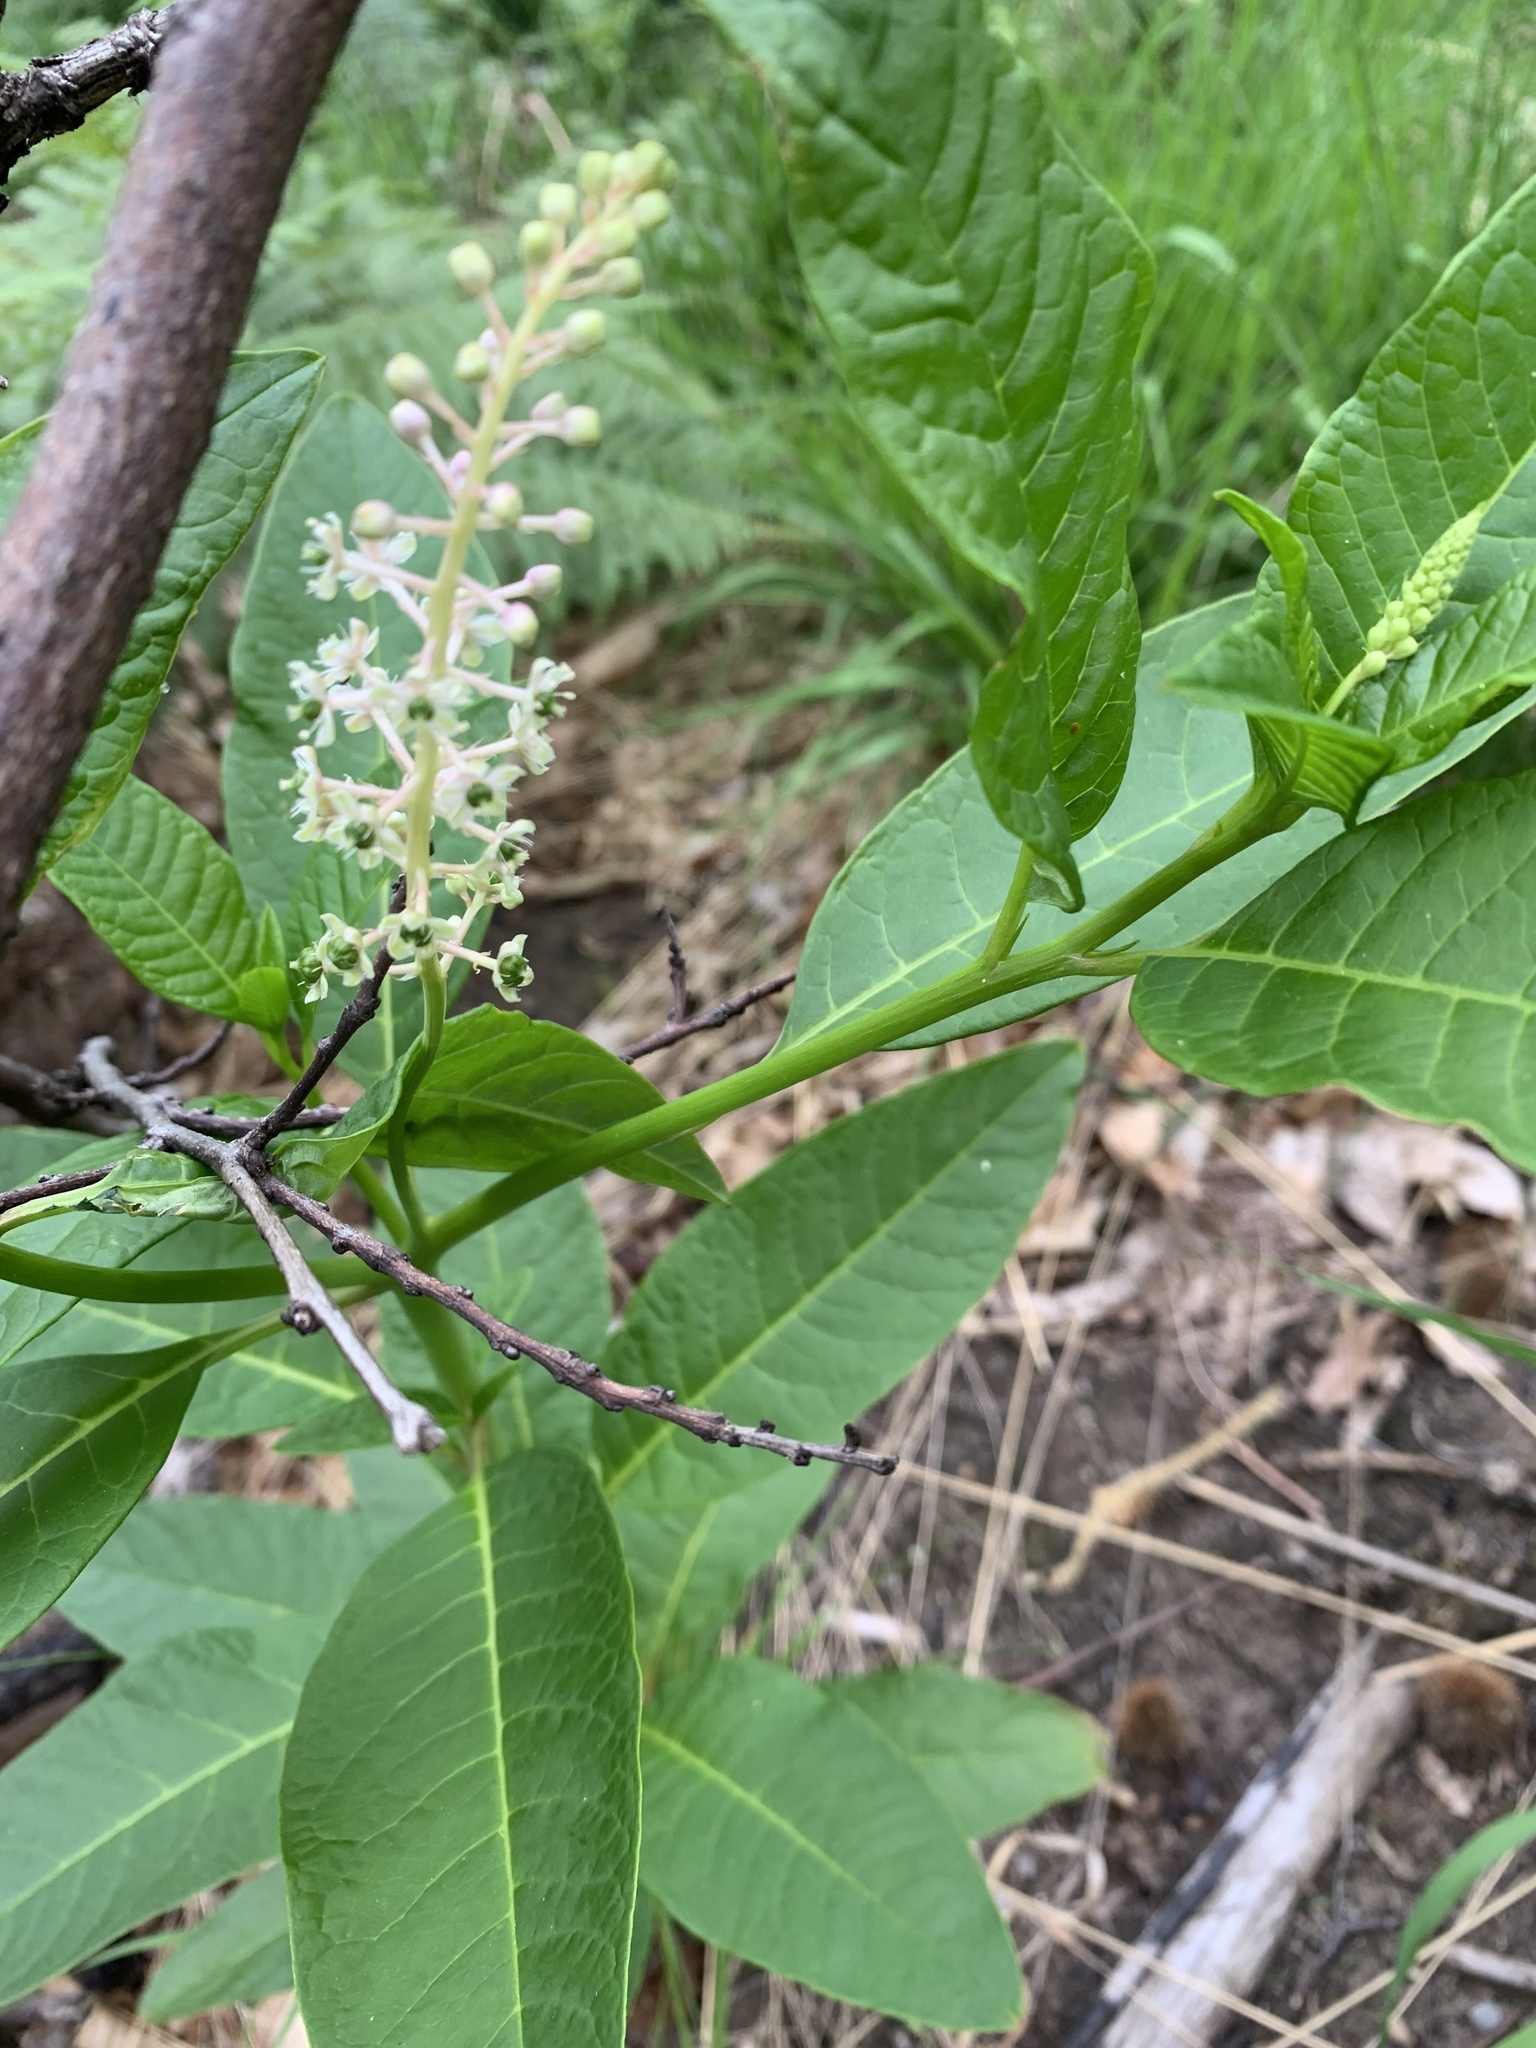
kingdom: Plantae
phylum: Tracheophyta
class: Magnoliopsida
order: Caryophyllales
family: Phytolaccaceae
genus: Phytolacca
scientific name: Phytolacca americana
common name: American pokeweed
